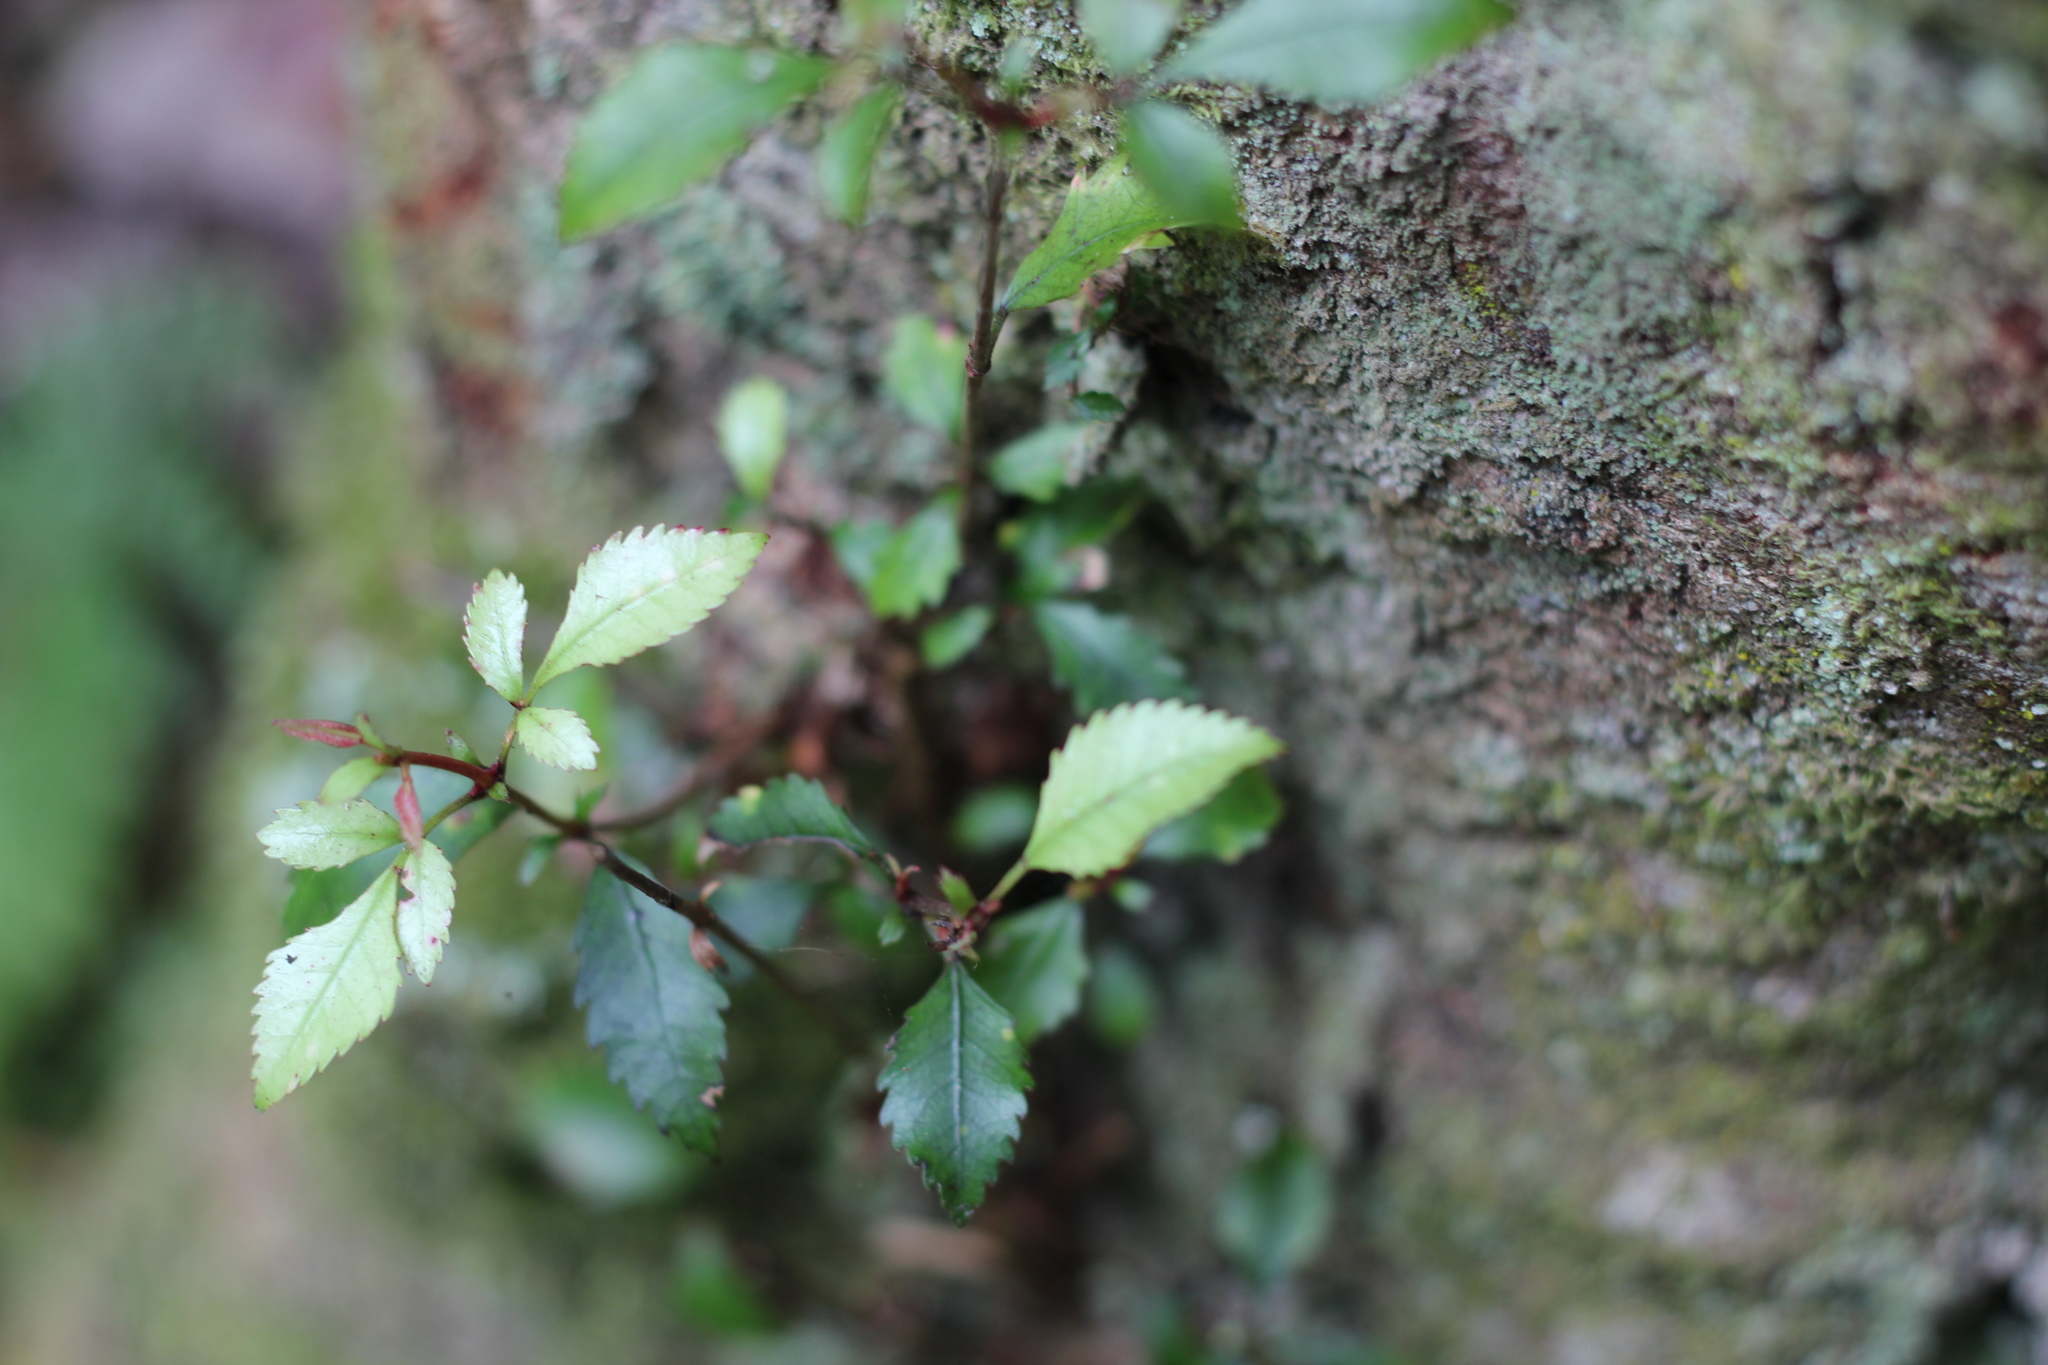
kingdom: Plantae
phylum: Tracheophyta
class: Magnoliopsida
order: Oxalidales
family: Cunoniaceae
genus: Pterophylla
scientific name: Pterophylla racemosa
